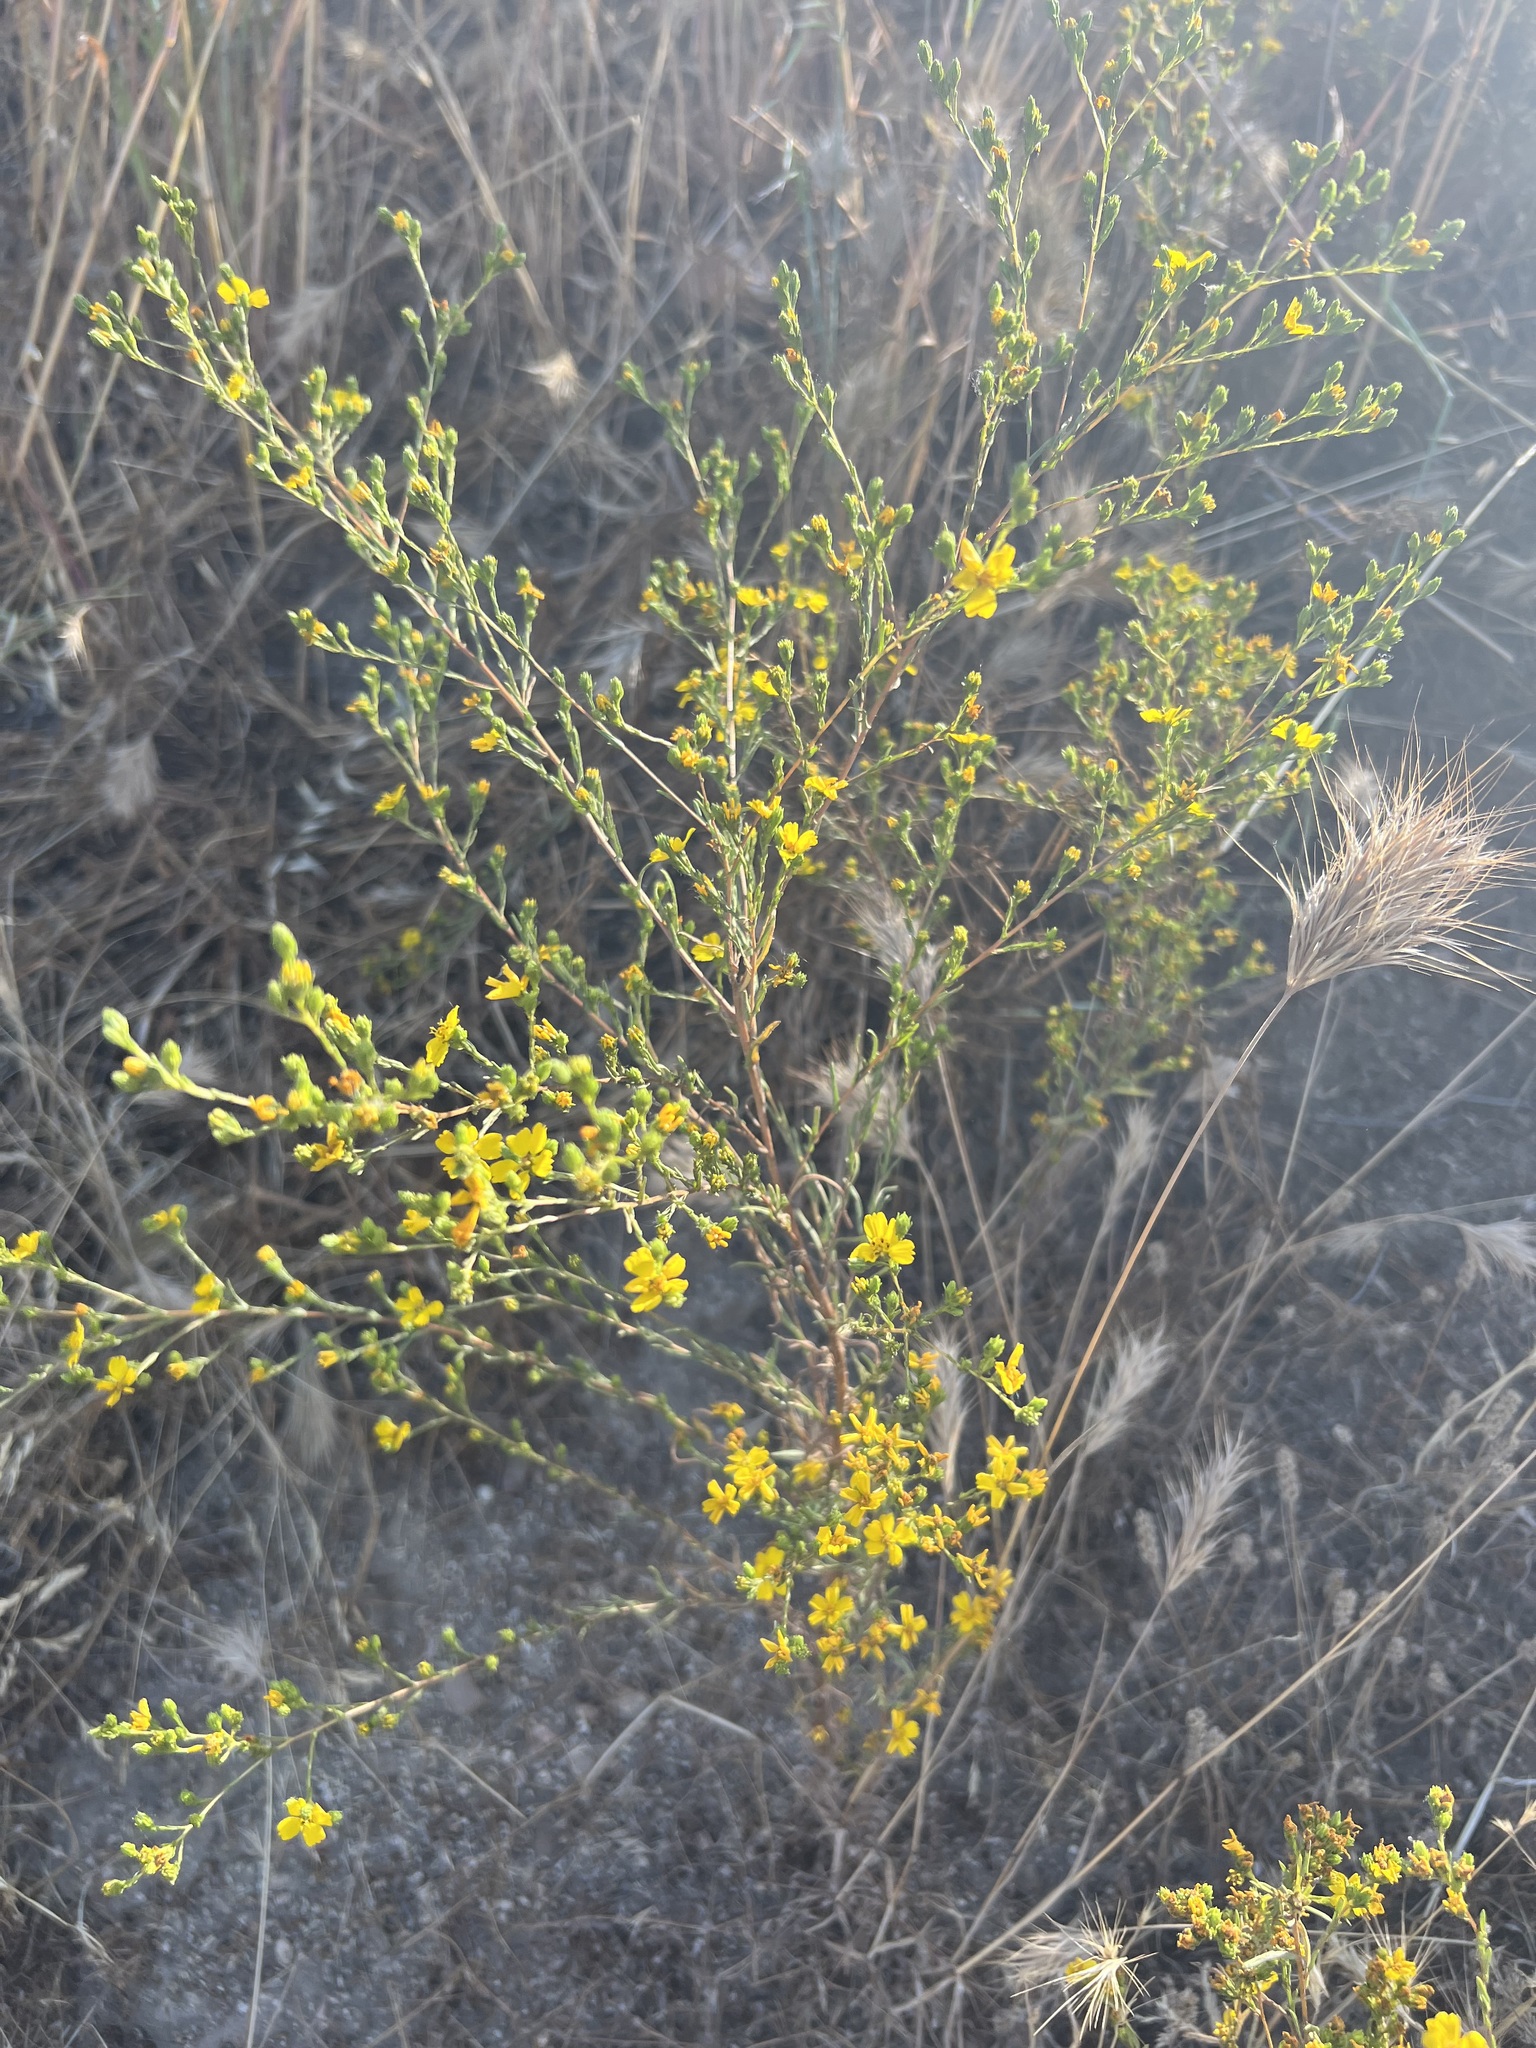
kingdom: Plantae
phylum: Tracheophyta
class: Magnoliopsida
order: Asterales
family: Asteraceae
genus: Deinandra
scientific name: Deinandra fasciculata
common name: Clustered tarweed
